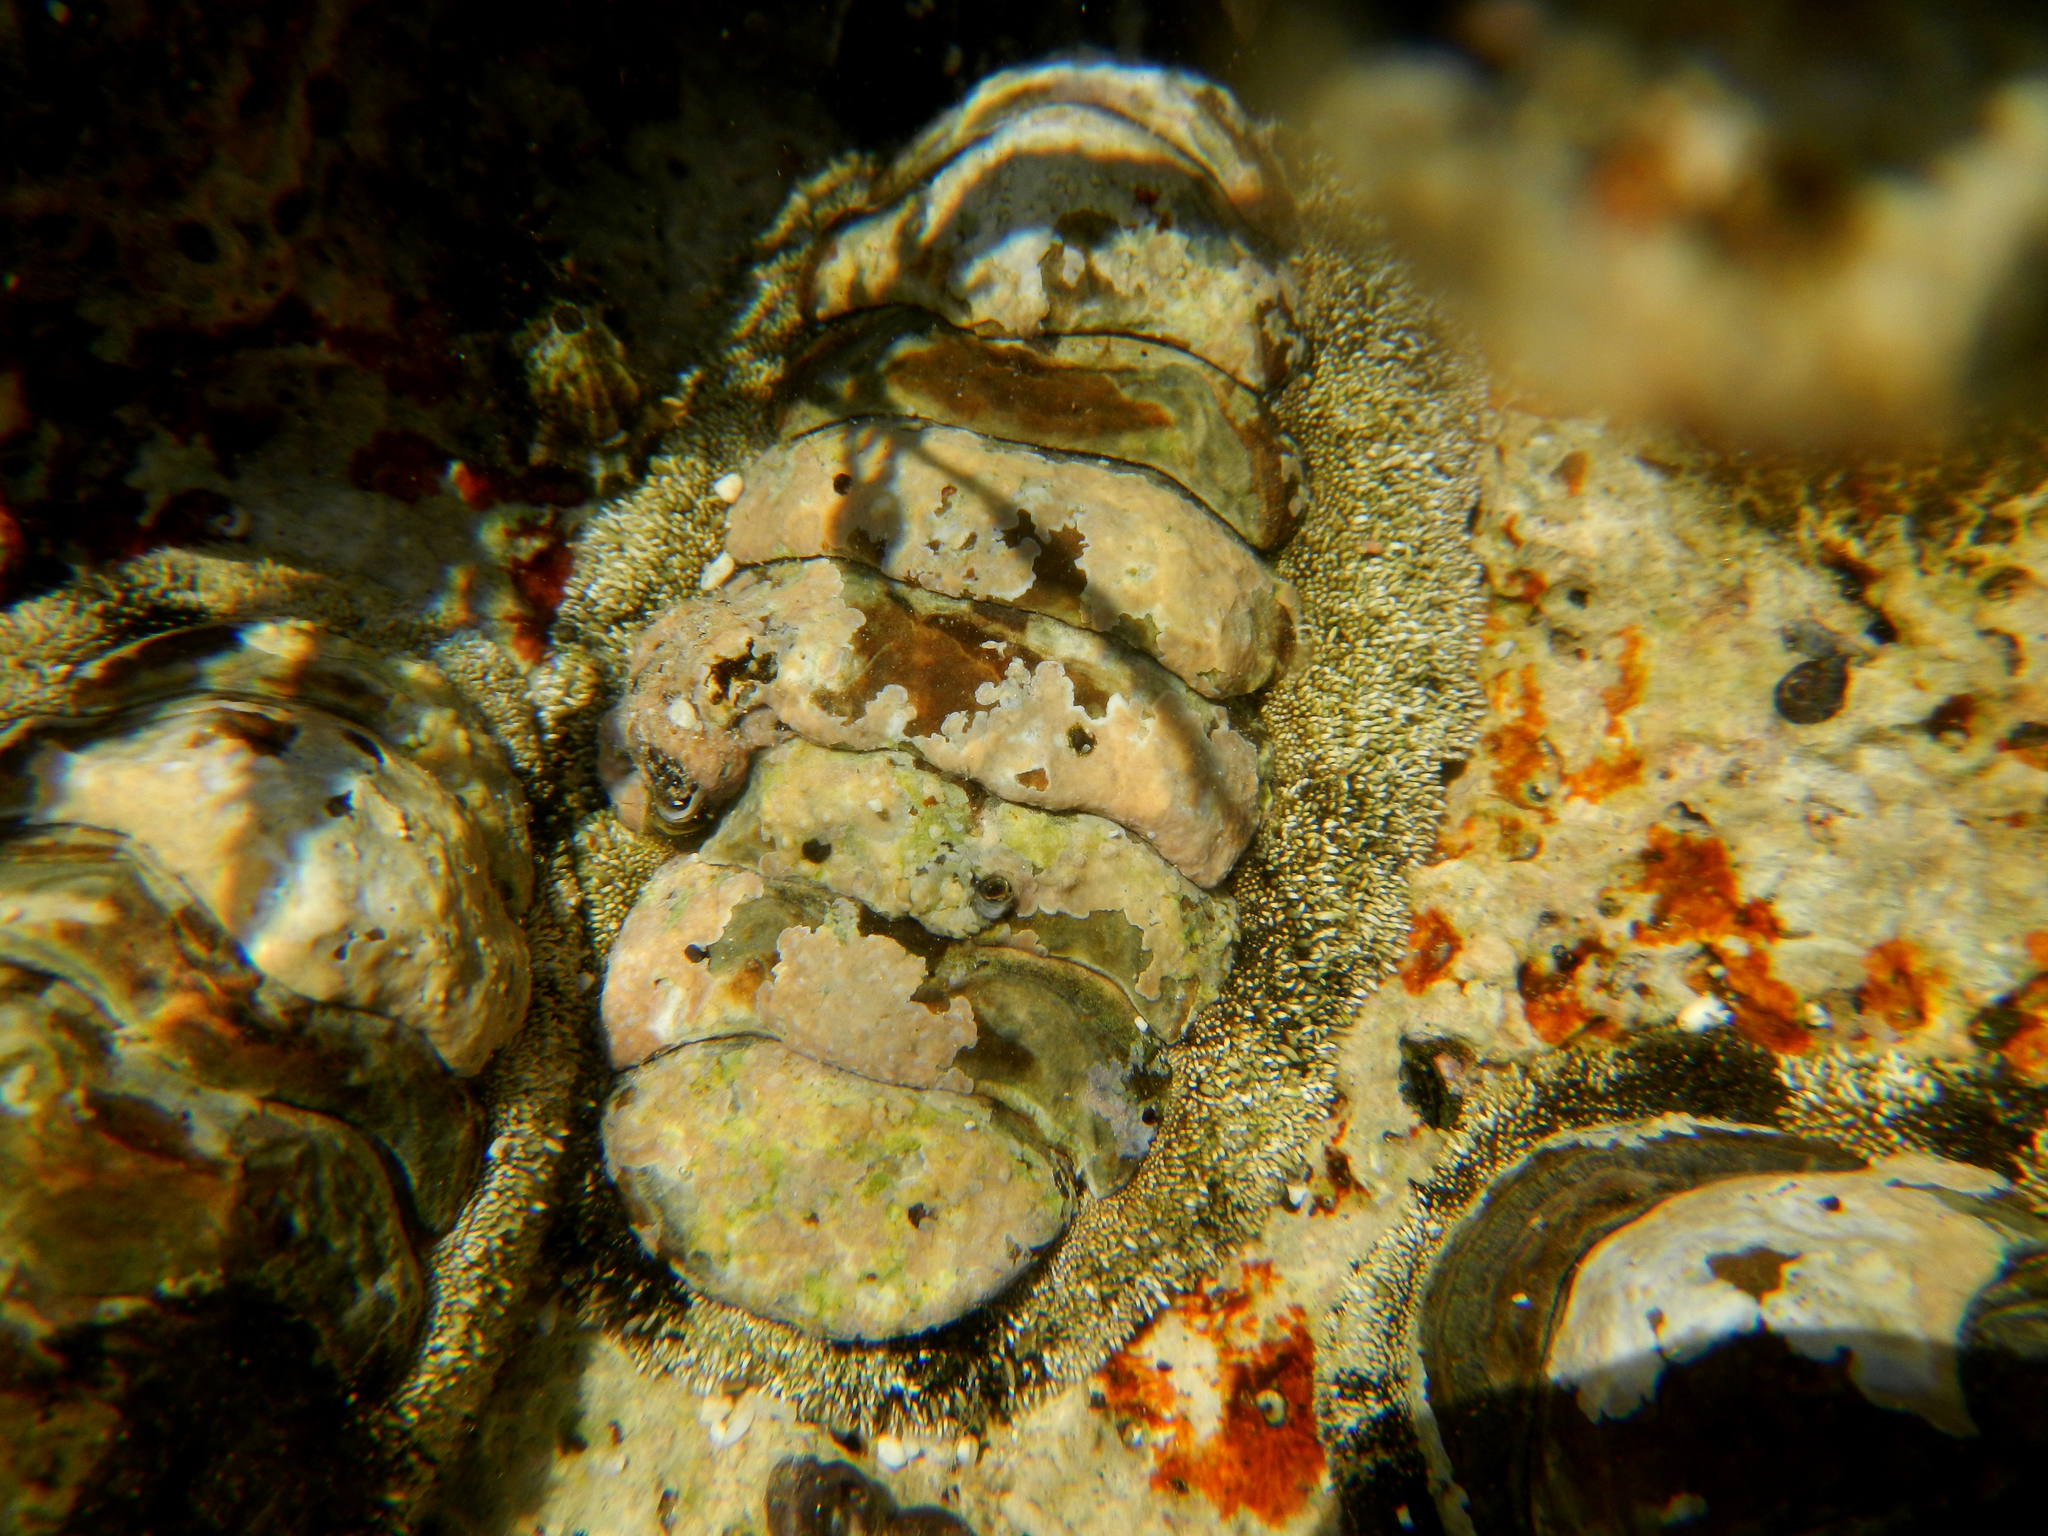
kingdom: Animalia
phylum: Mollusca
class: Polyplacophora
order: Chitonida
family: Chitonidae
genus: Acanthopleura
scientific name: Acanthopleura granulata
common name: West indian fuzzy chiton
